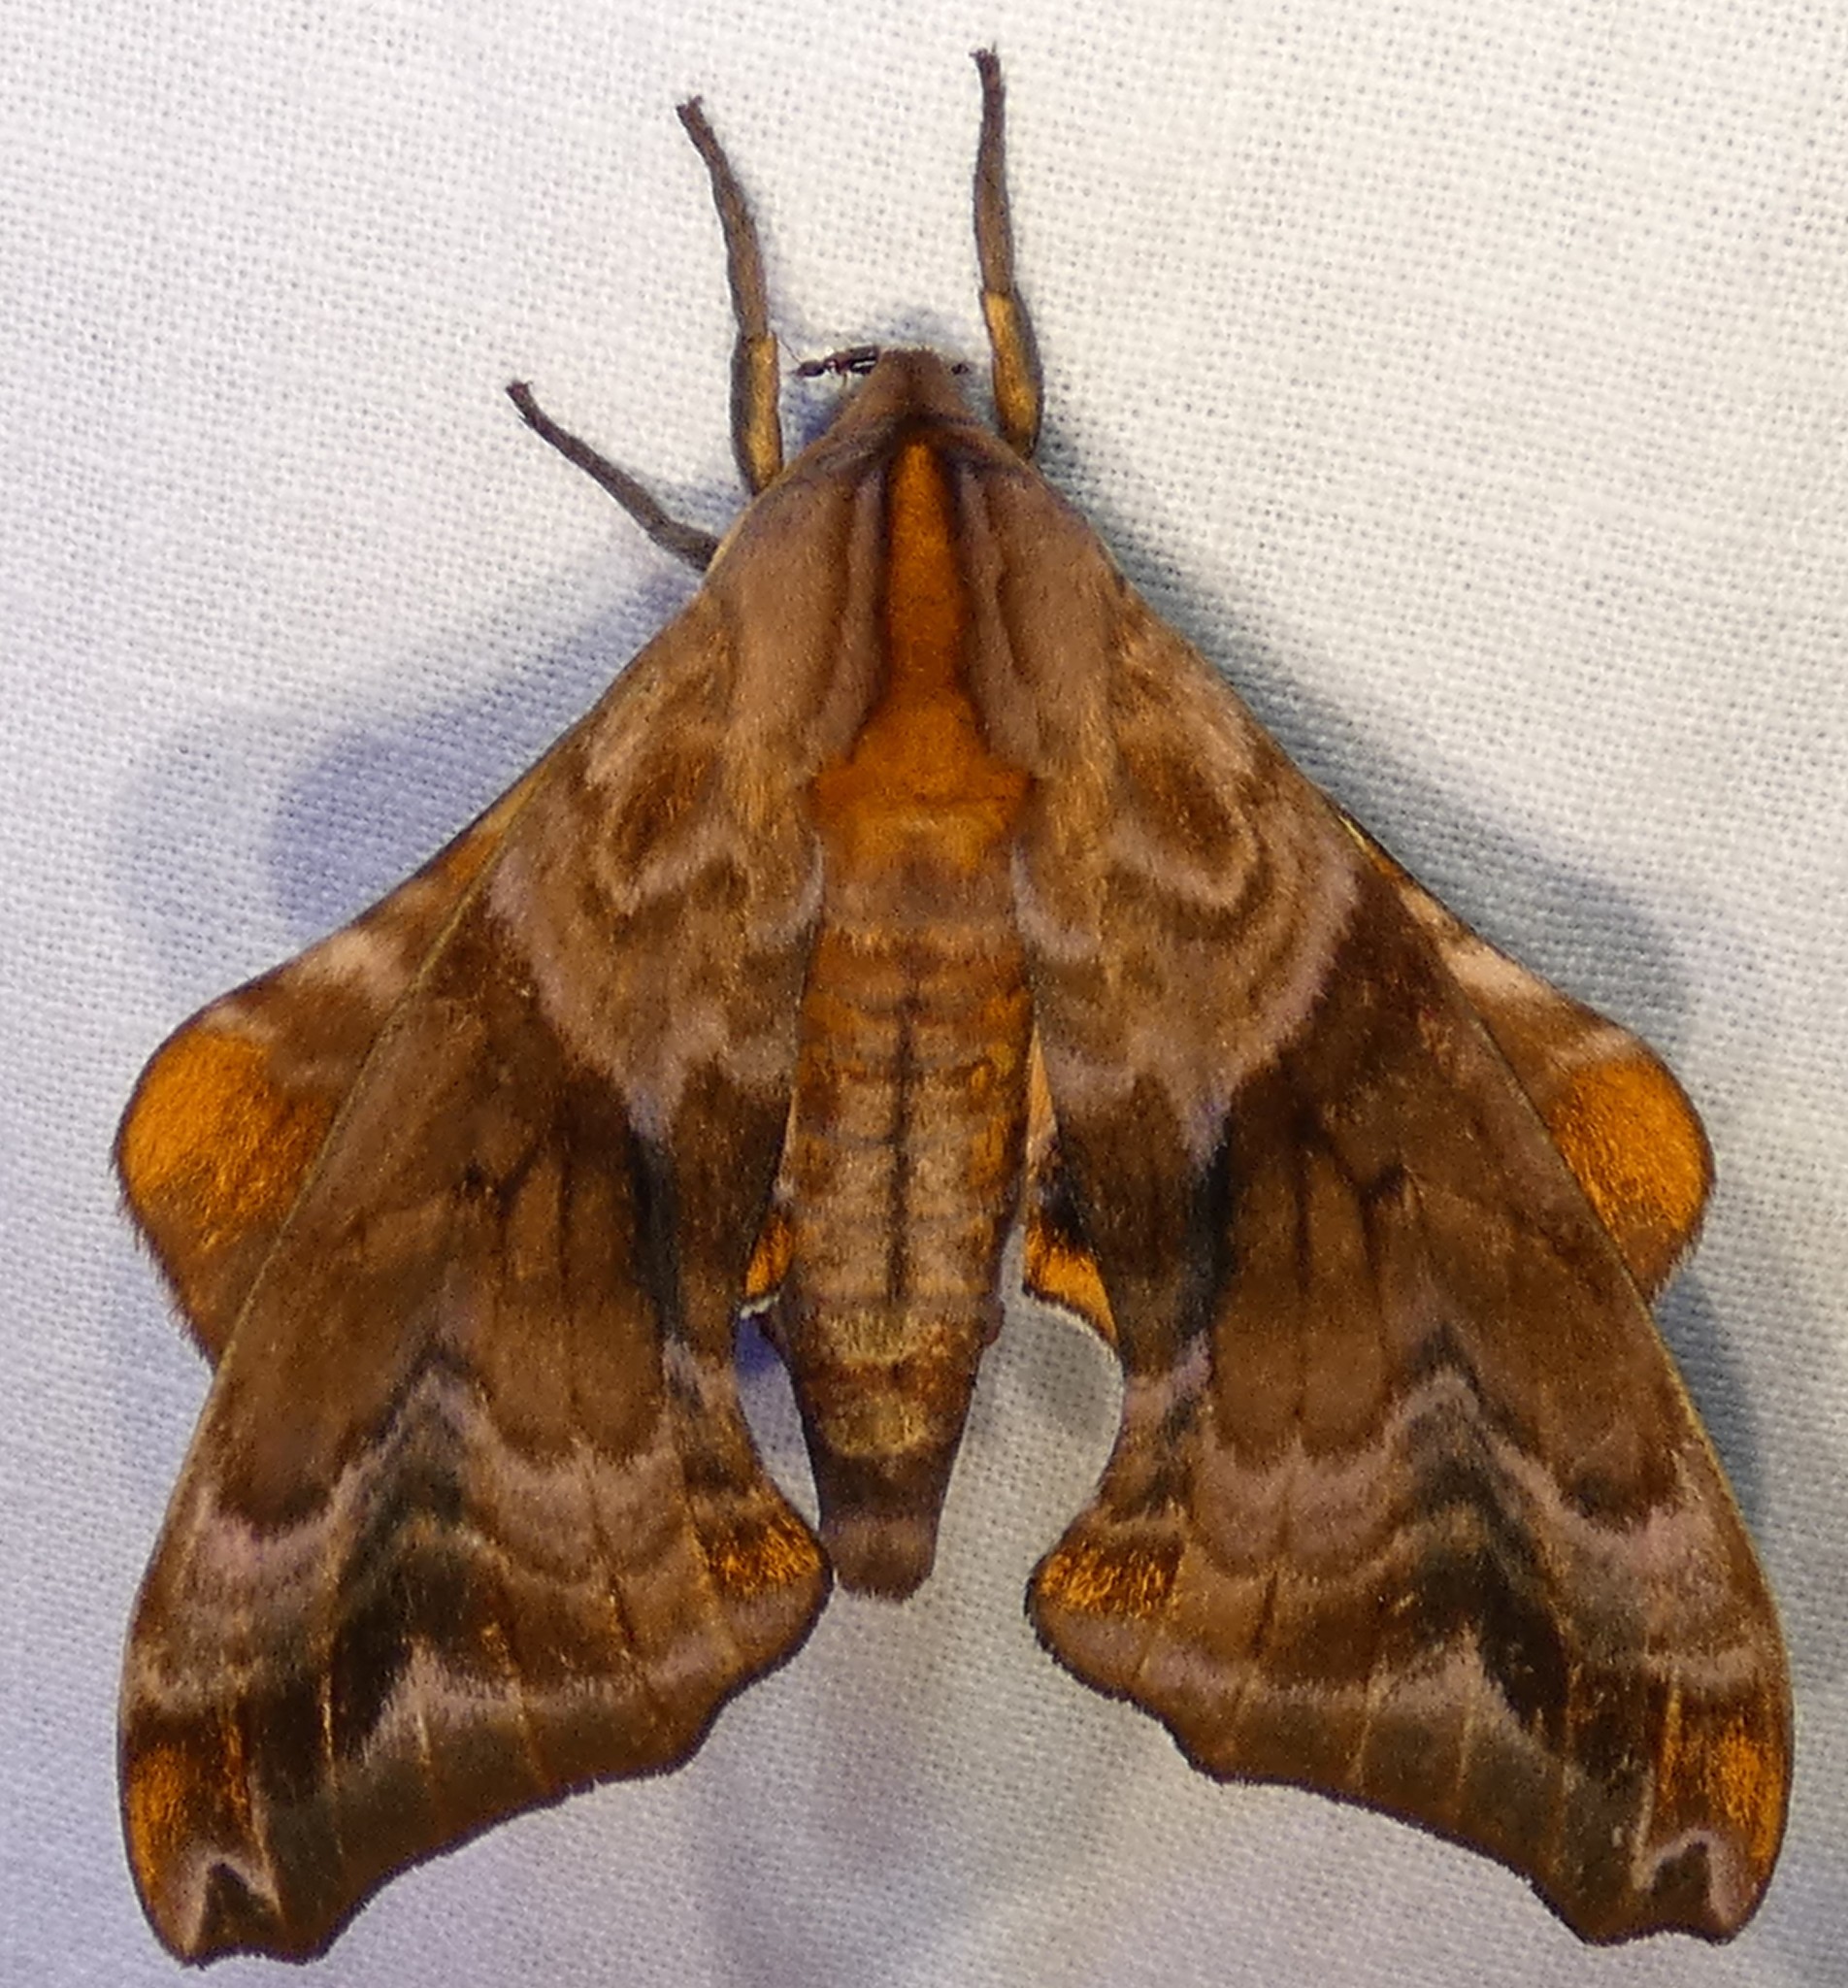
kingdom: Animalia
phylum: Arthropoda
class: Insecta
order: Lepidoptera
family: Sphingidae
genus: Paonias
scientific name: Paonias myops
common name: Small-eyed sphinx
